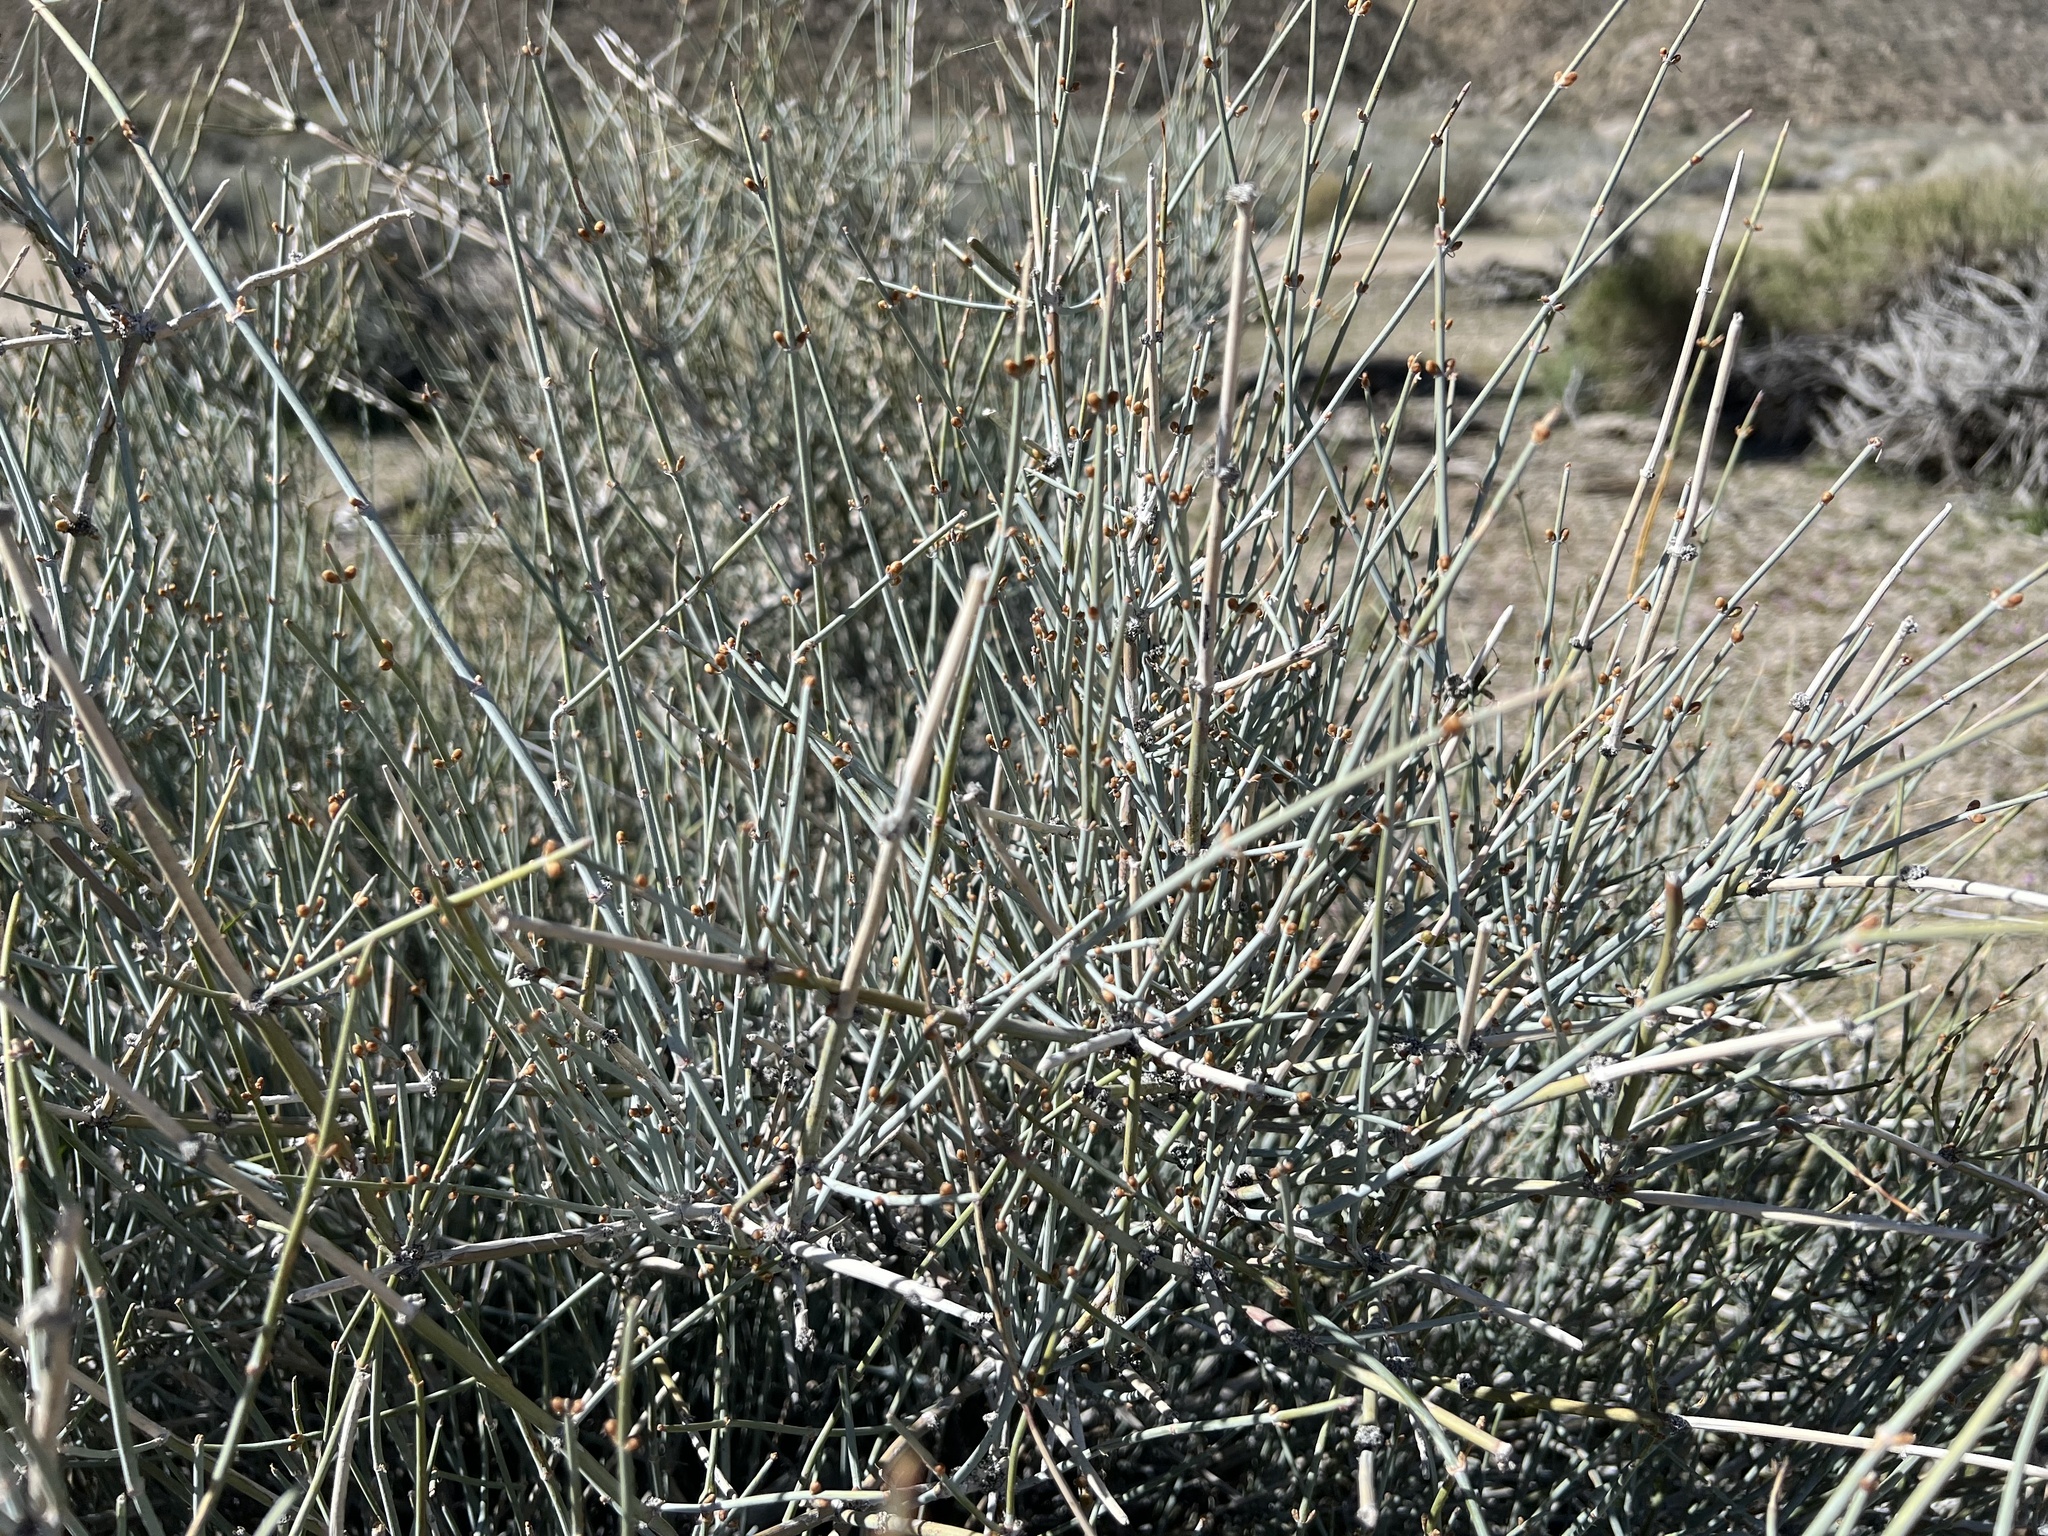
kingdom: Plantae
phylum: Tracheophyta
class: Gnetopsida
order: Ephedrales
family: Ephedraceae
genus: Ephedra
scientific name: Ephedra nevadensis
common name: Gray ephedra
